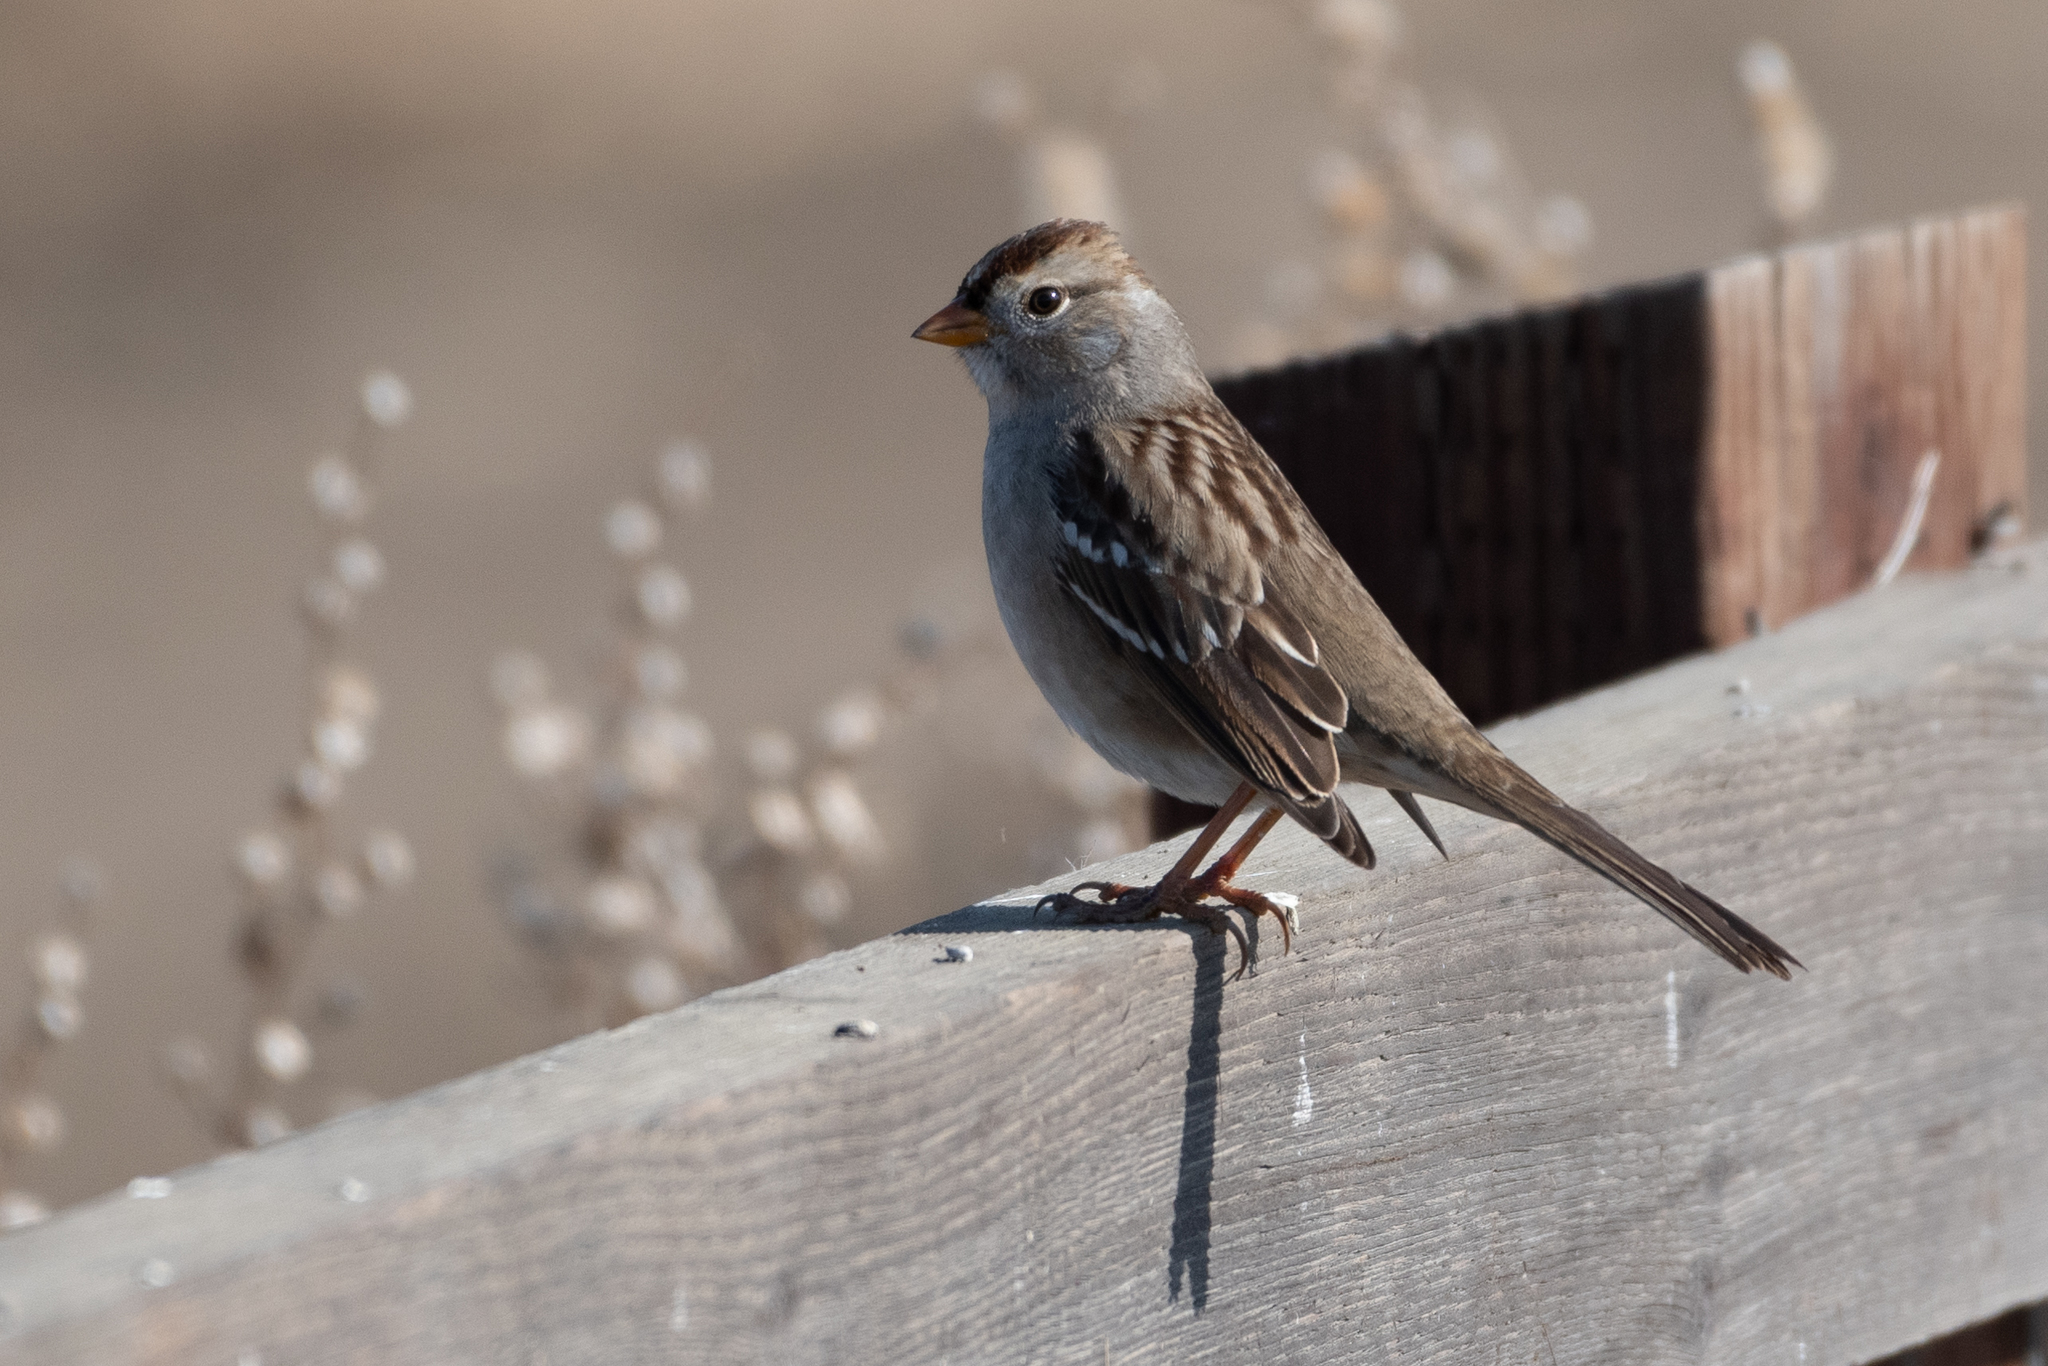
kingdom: Animalia
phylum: Chordata
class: Aves
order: Passeriformes
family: Passerellidae
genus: Zonotrichia
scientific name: Zonotrichia leucophrys
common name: White-crowned sparrow
